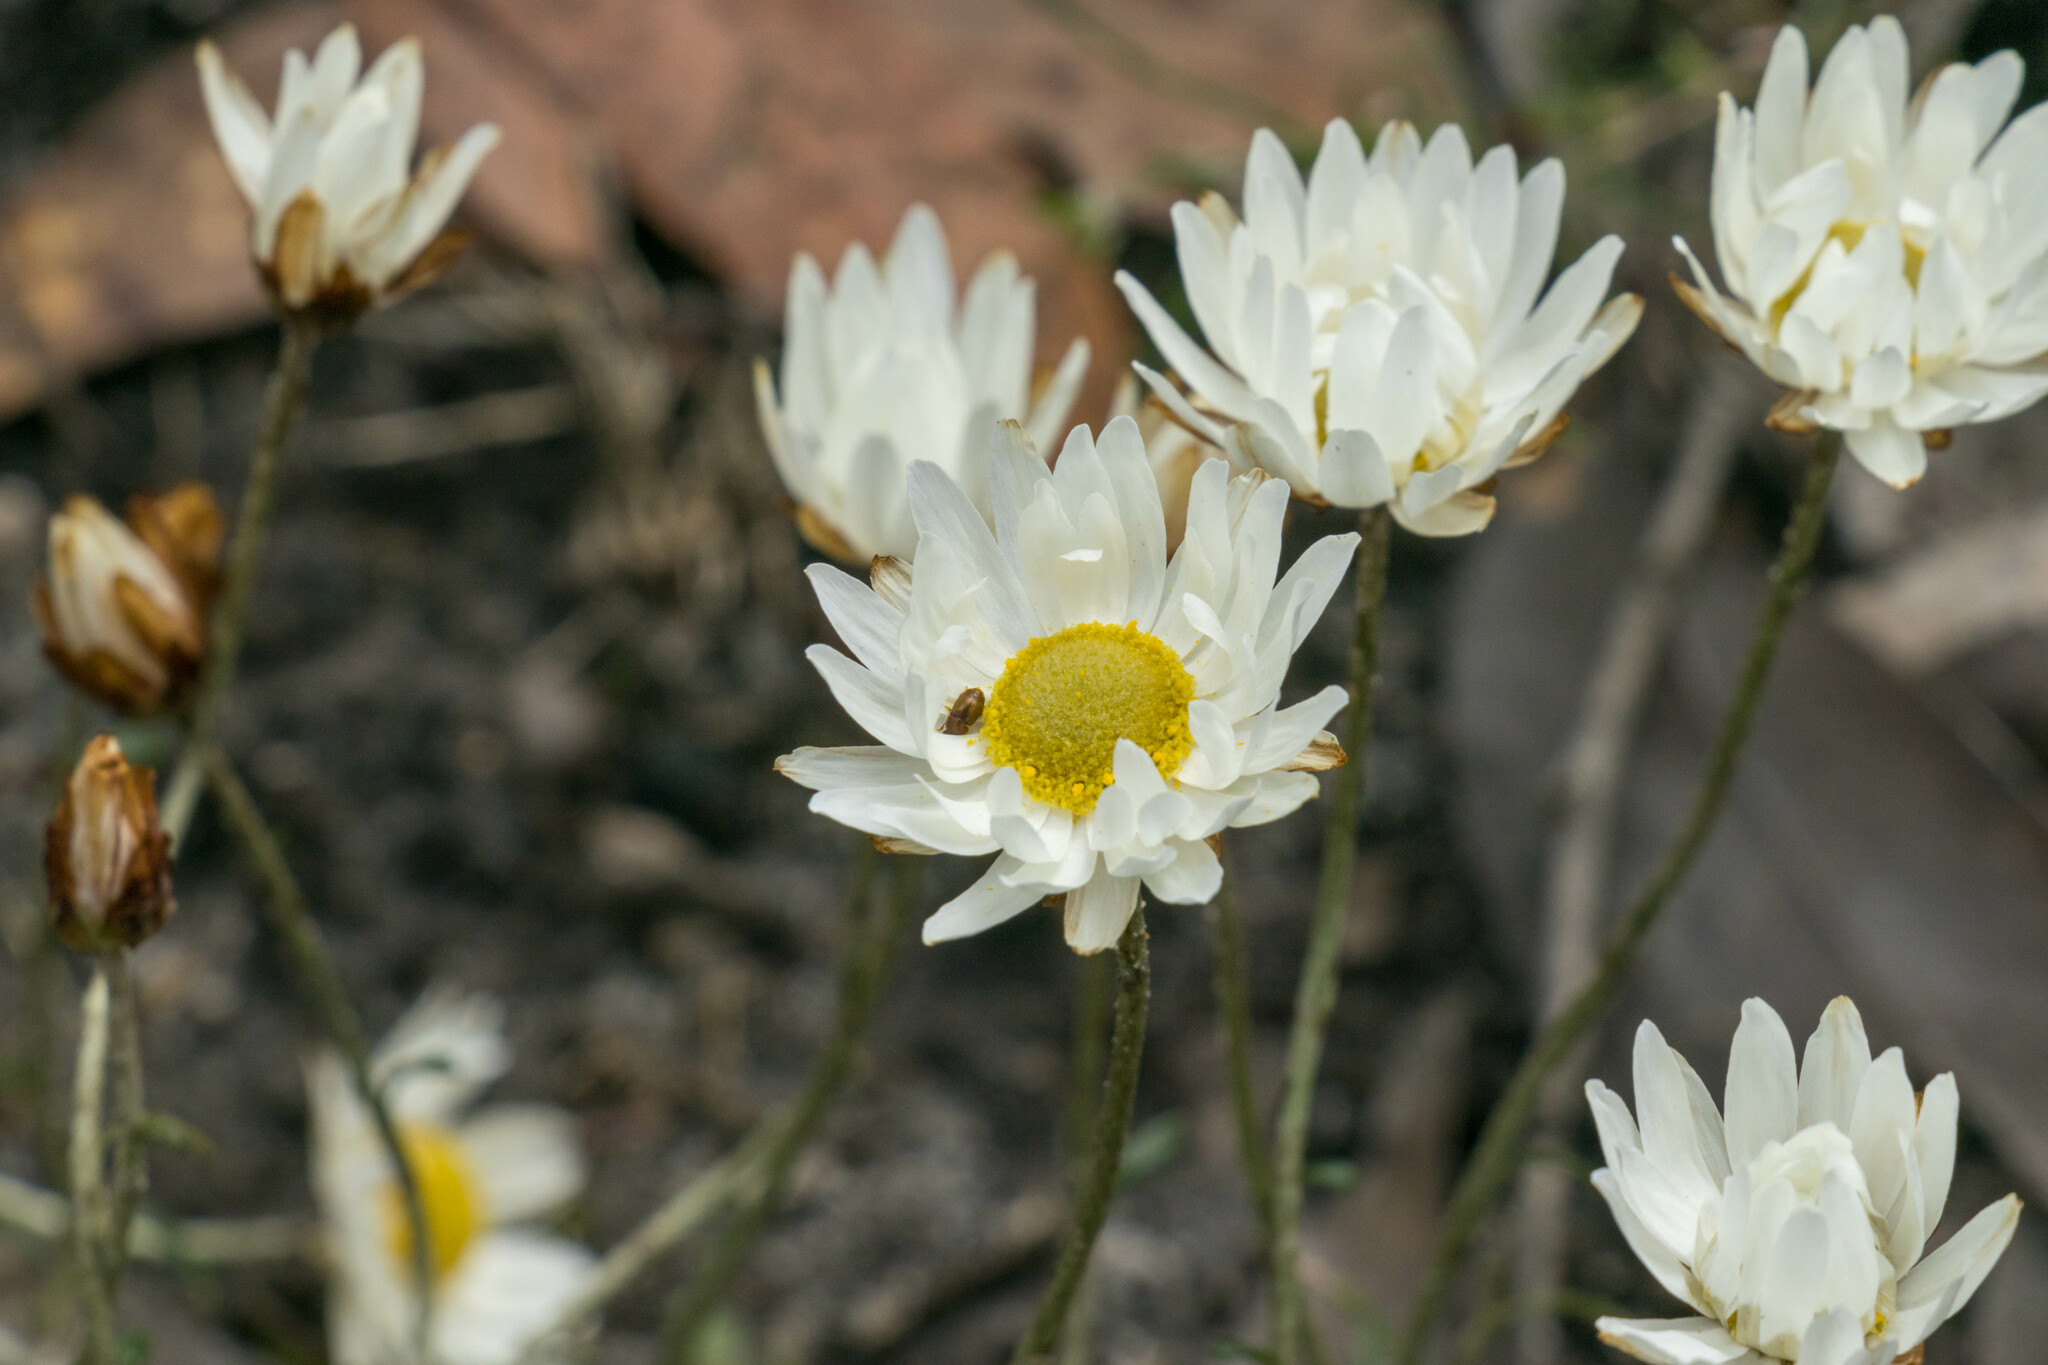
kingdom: Plantae
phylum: Tracheophyta
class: Magnoliopsida
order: Asterales
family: Asteraceae
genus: Argentipallium
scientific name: Argentipallium obtusifolium
